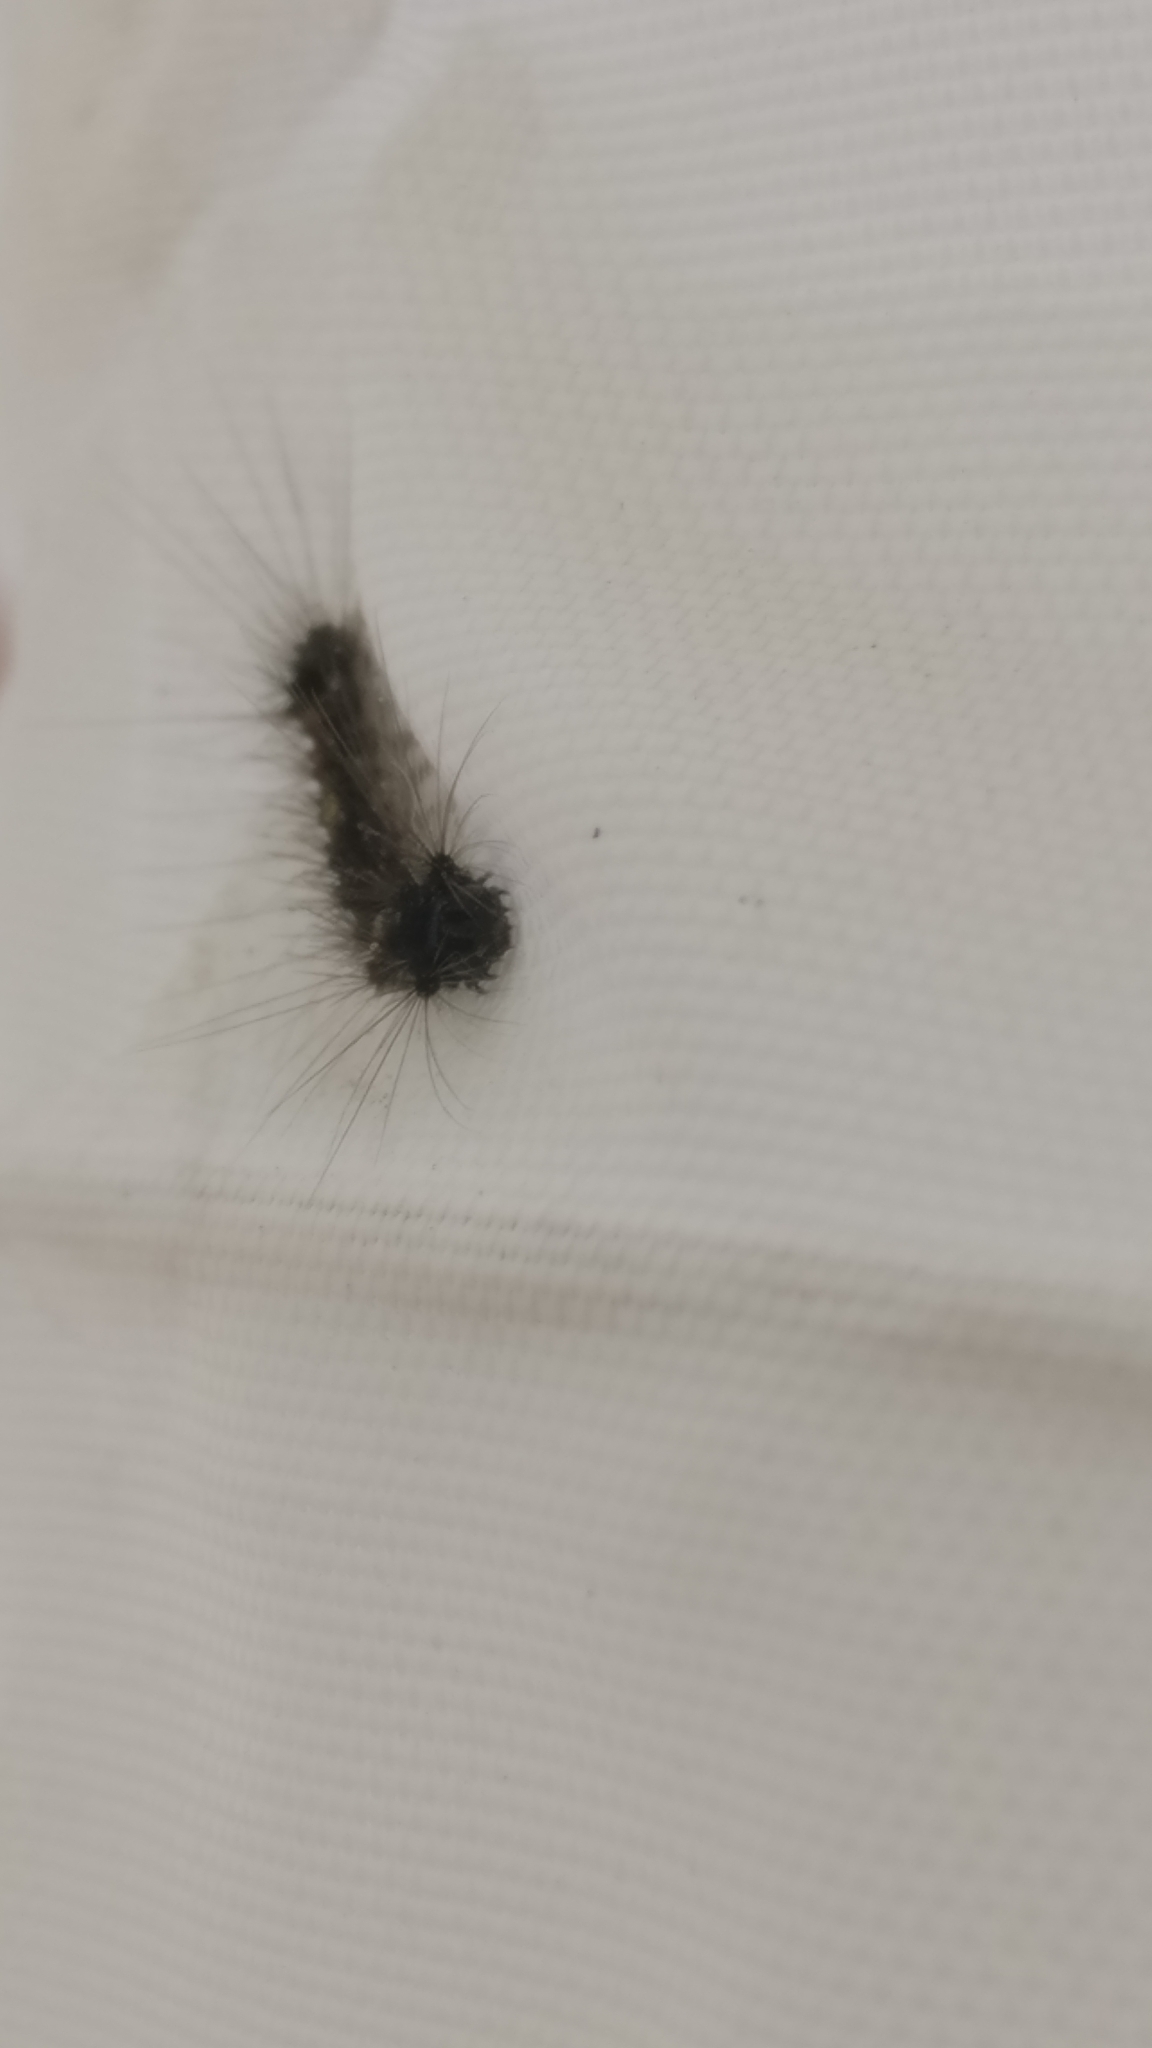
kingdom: Animalia
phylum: Arthropoda
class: Insecta
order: Lepidoptera
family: Erebidae
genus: Lymantria
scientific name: Lymantria dispar
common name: Gypsy moth
